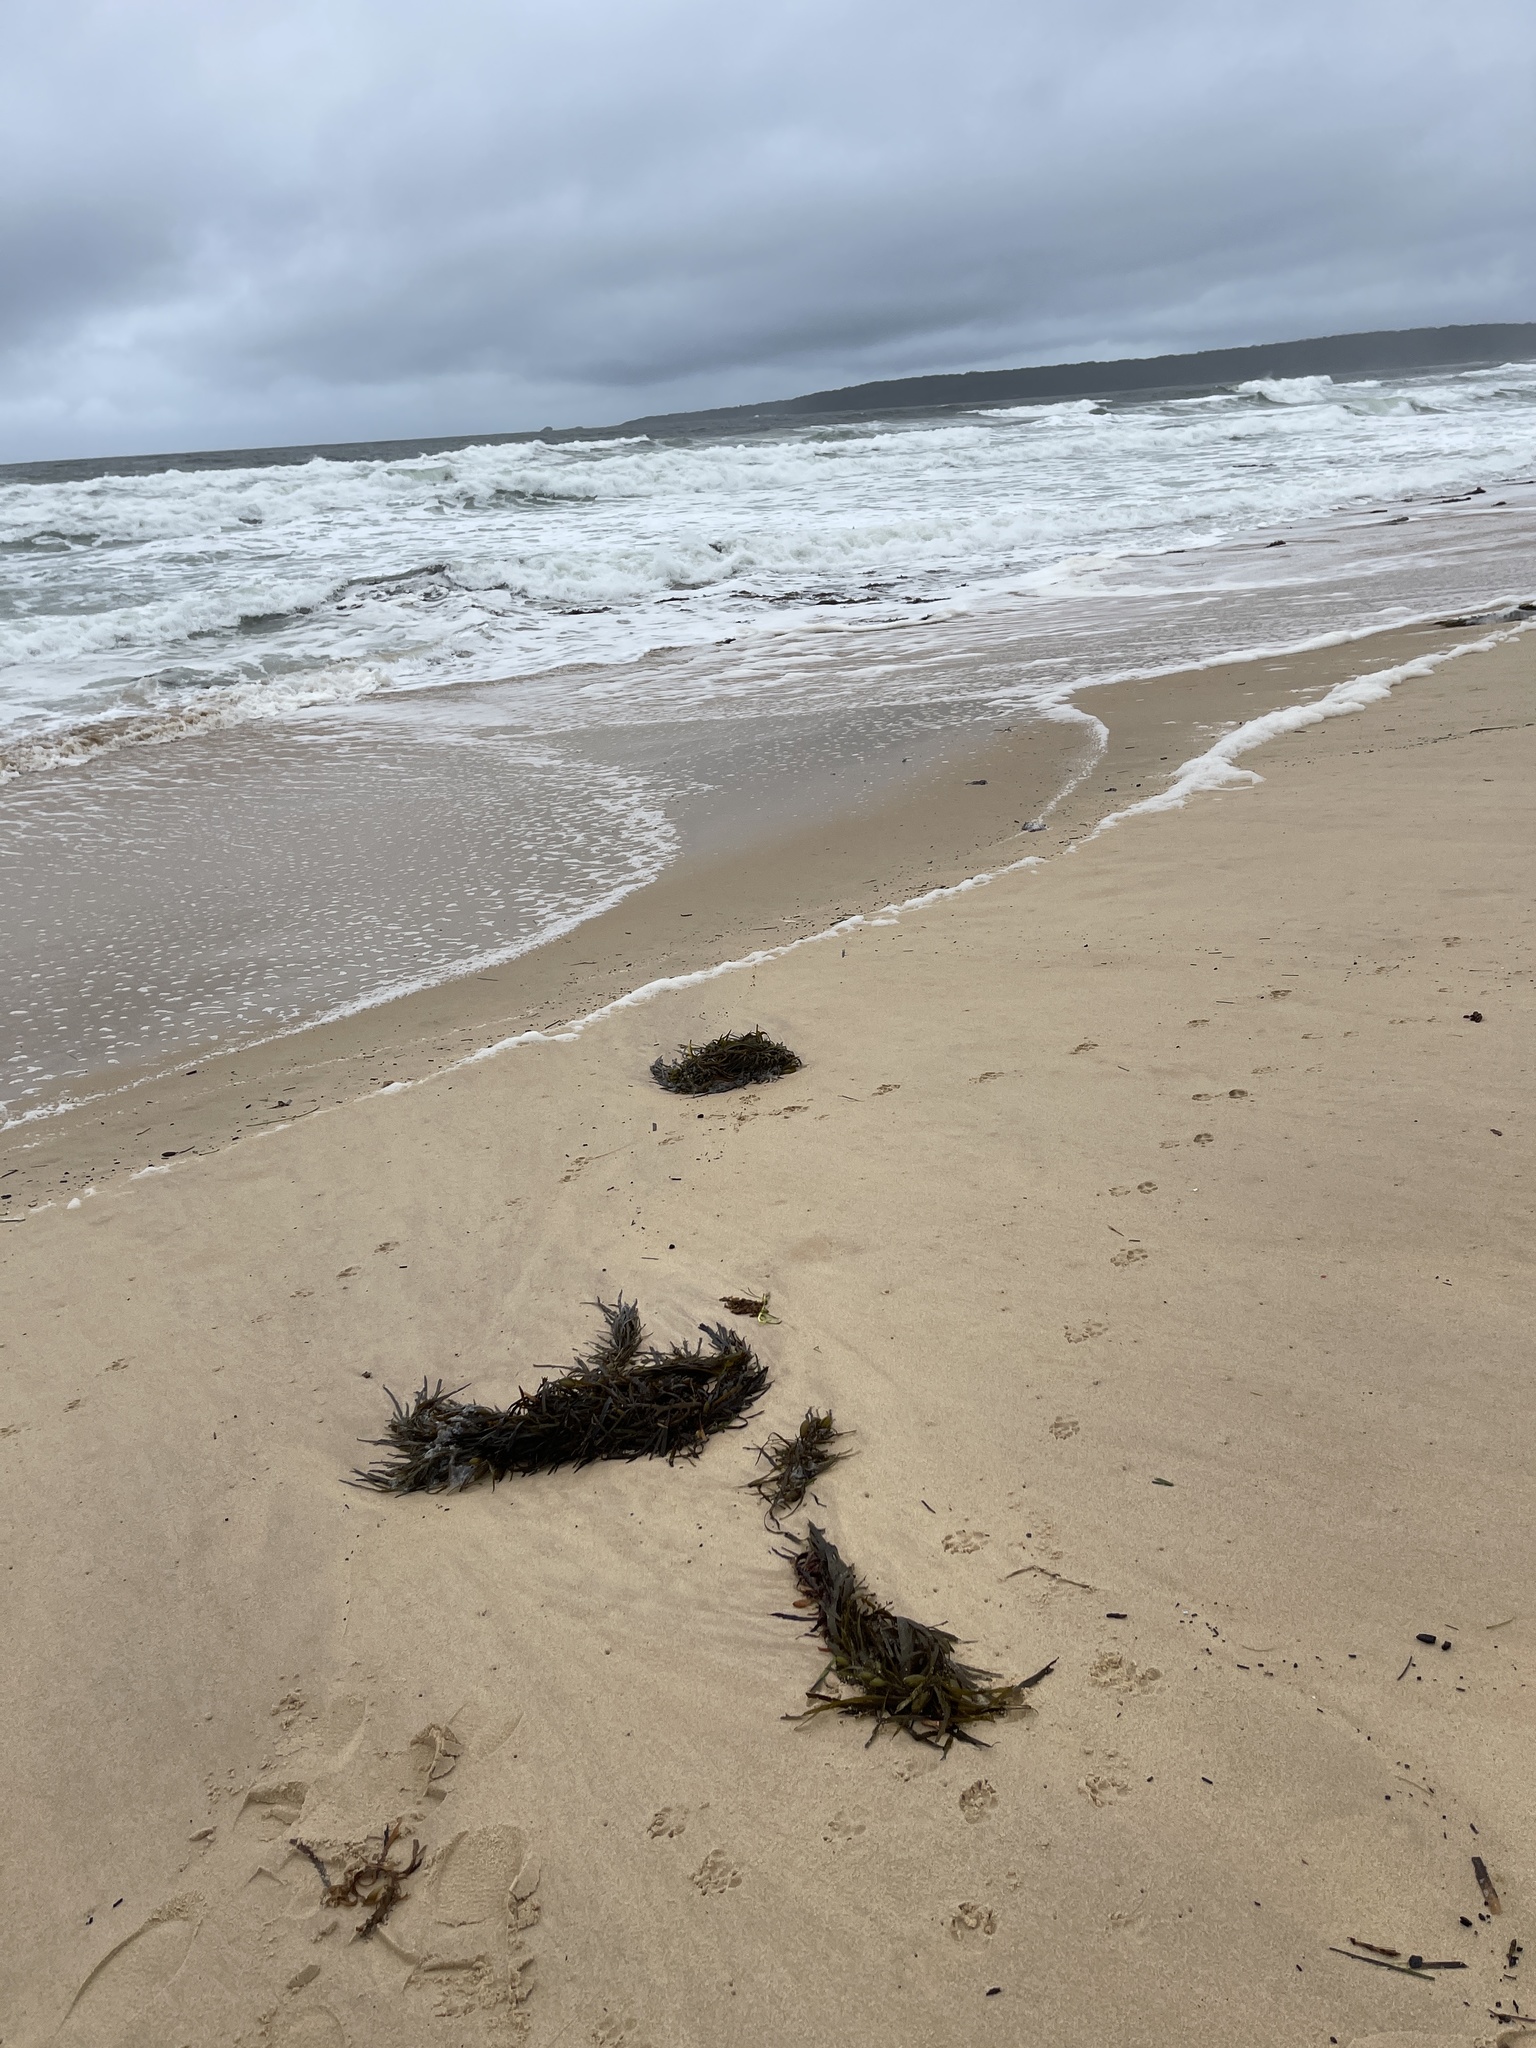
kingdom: Chromista
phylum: Ochrophyta
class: Phaeophyceae
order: Fucales
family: Seirococcaceae
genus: Phyllospora
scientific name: Phyllospora
